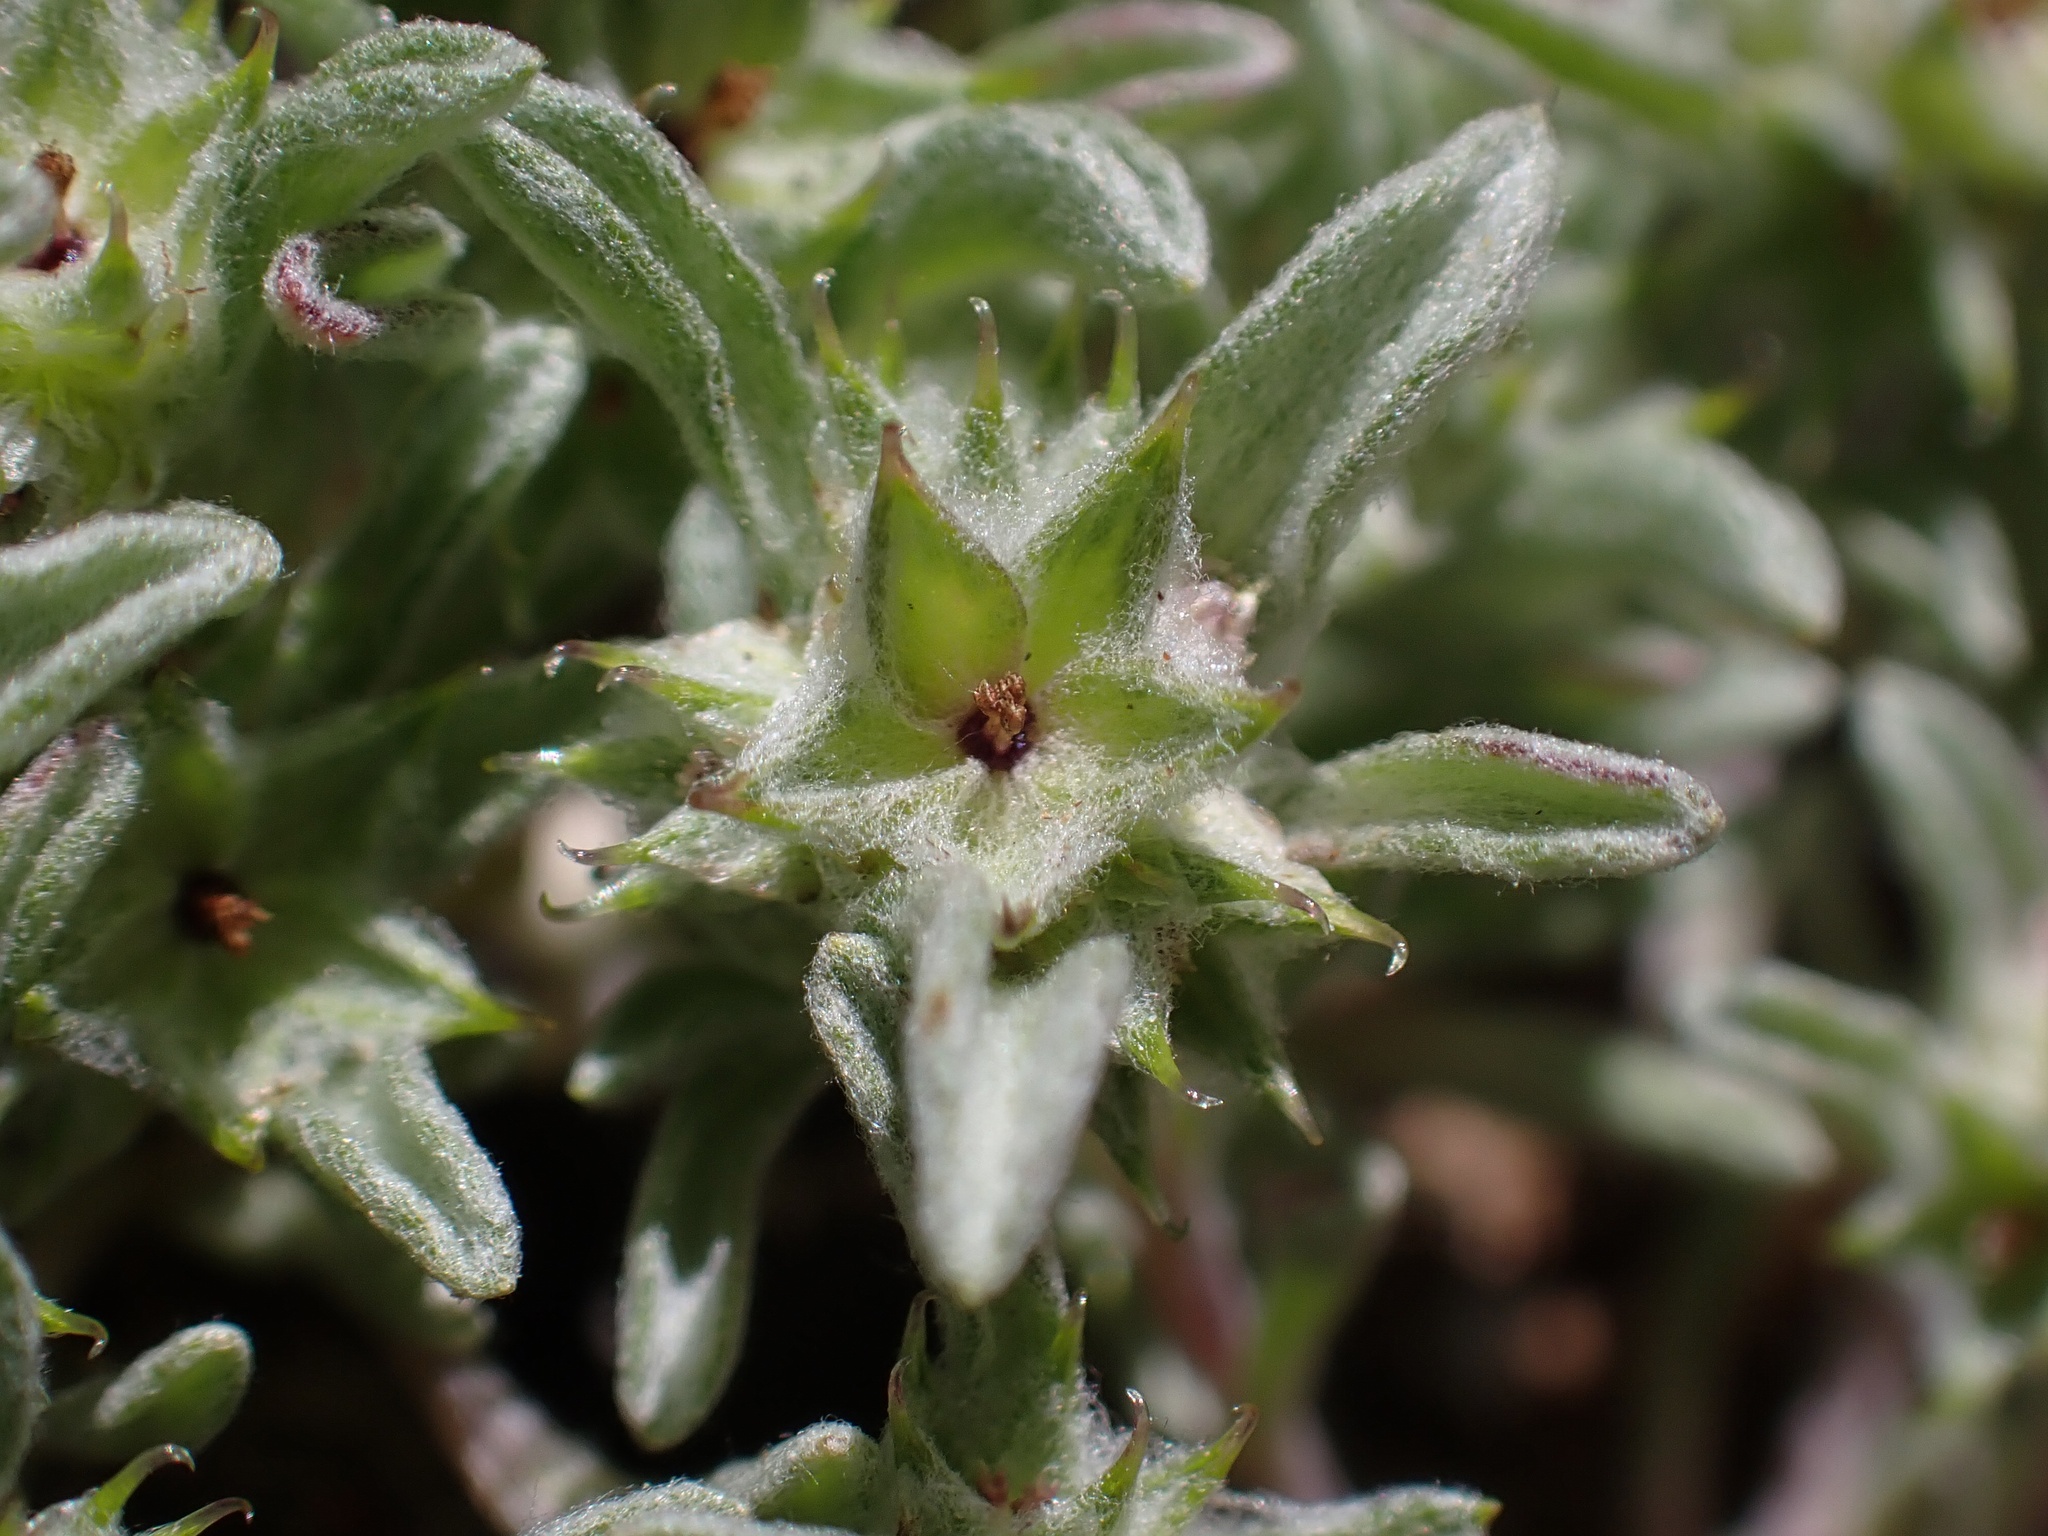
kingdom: Plantae
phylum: Tracheophyta
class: Magnoliopsida
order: Asterales
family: Asteraceae
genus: Ancistrocarphus
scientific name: Ancistrocarphus filagineus
